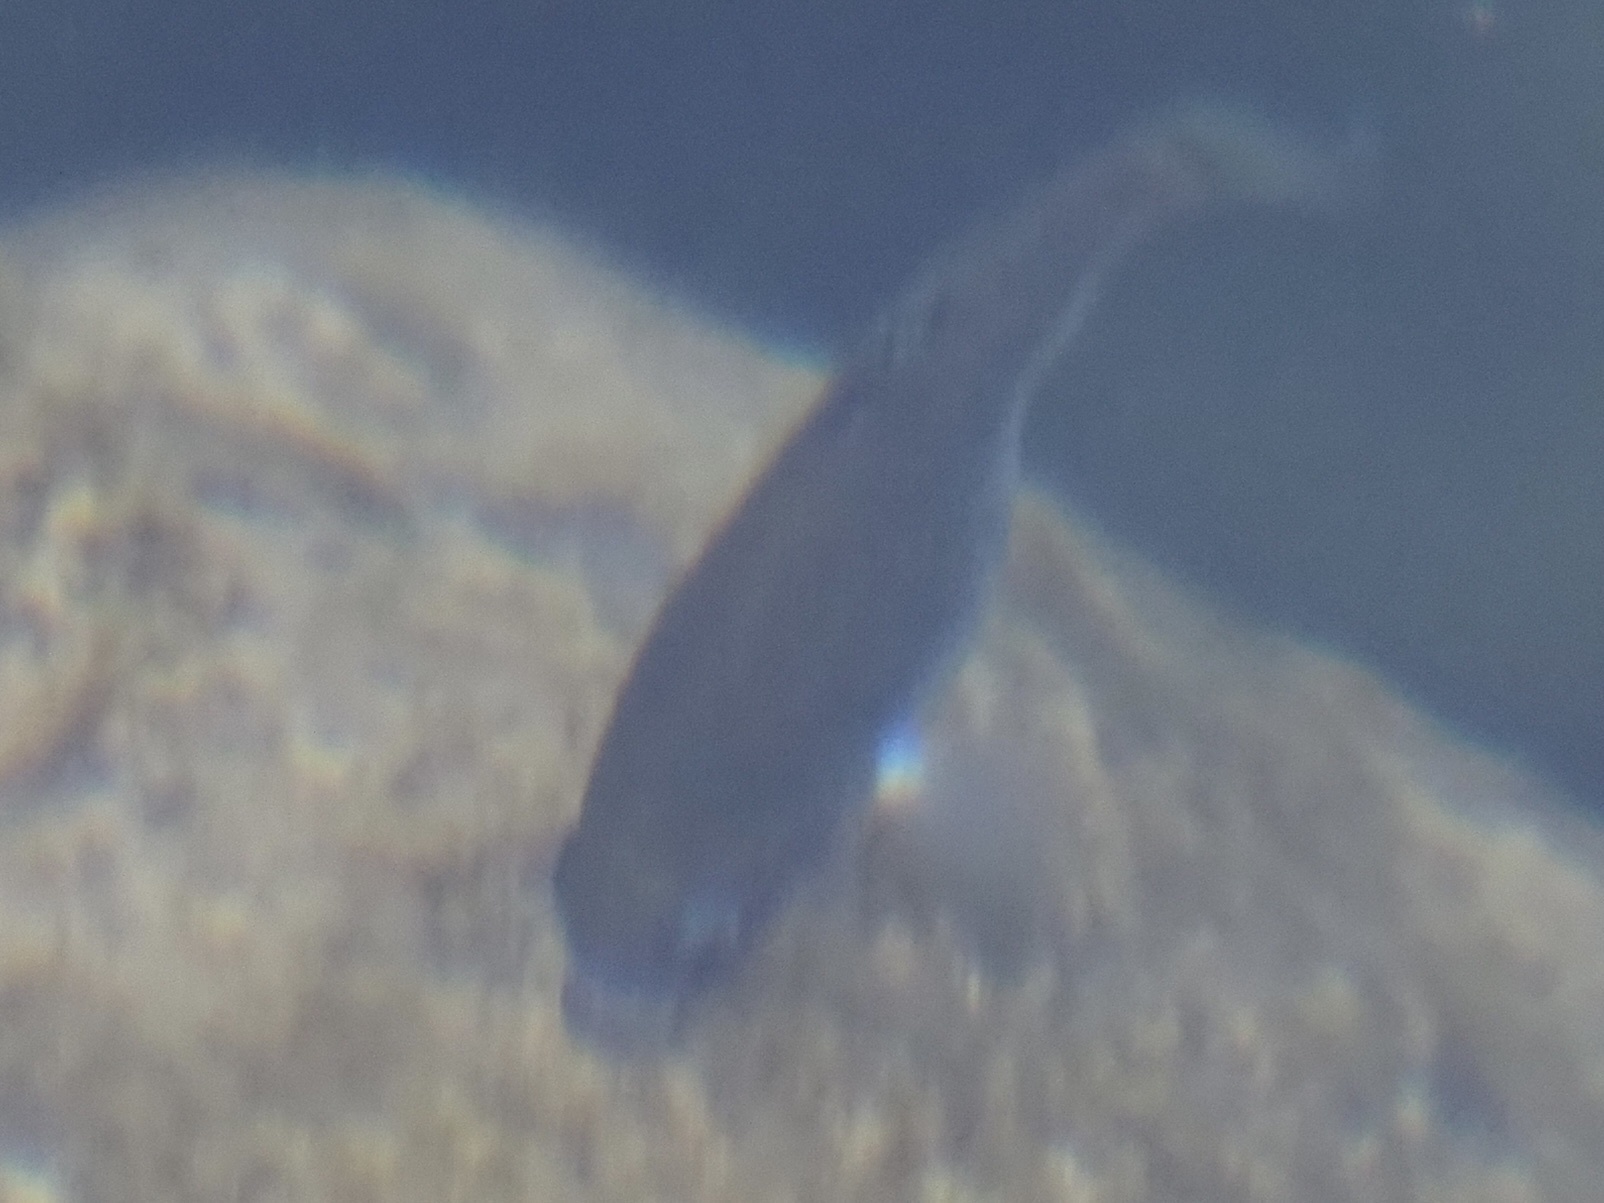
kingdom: Animalia
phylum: Chordata
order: Cyprinodontiformes
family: Cyprinodontidae
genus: Cyprinodon
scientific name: Cyprinodon nevadensis
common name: Amargosa pupfish
